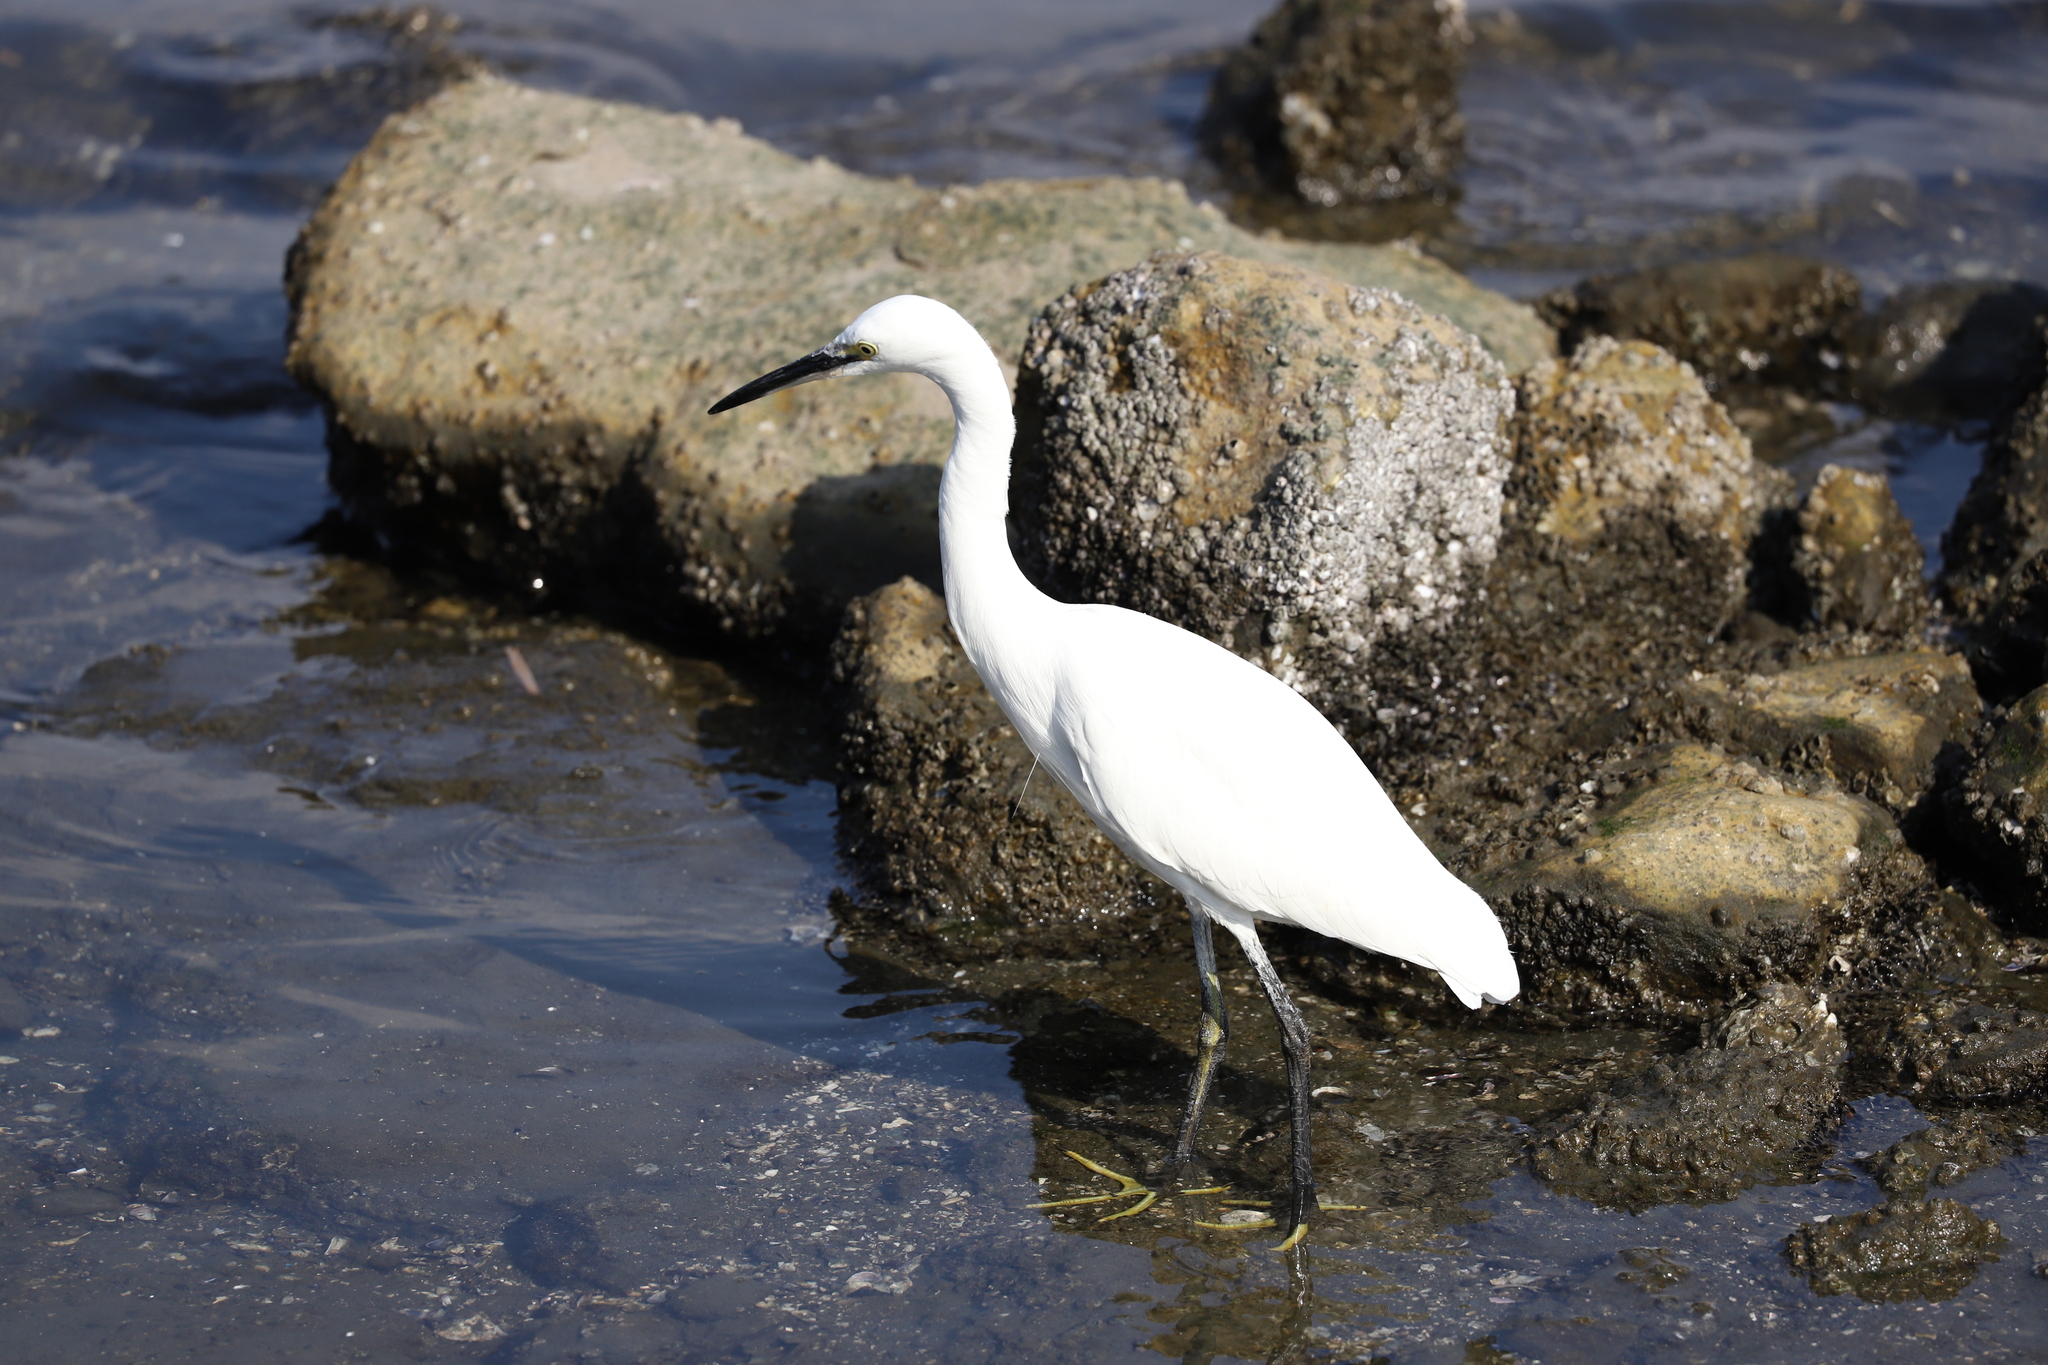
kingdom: Animalia
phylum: Chordata
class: Aves
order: Pelecaniformes
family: Ardeidae
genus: Egretta
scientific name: Egretta garzetta
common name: Little egret
